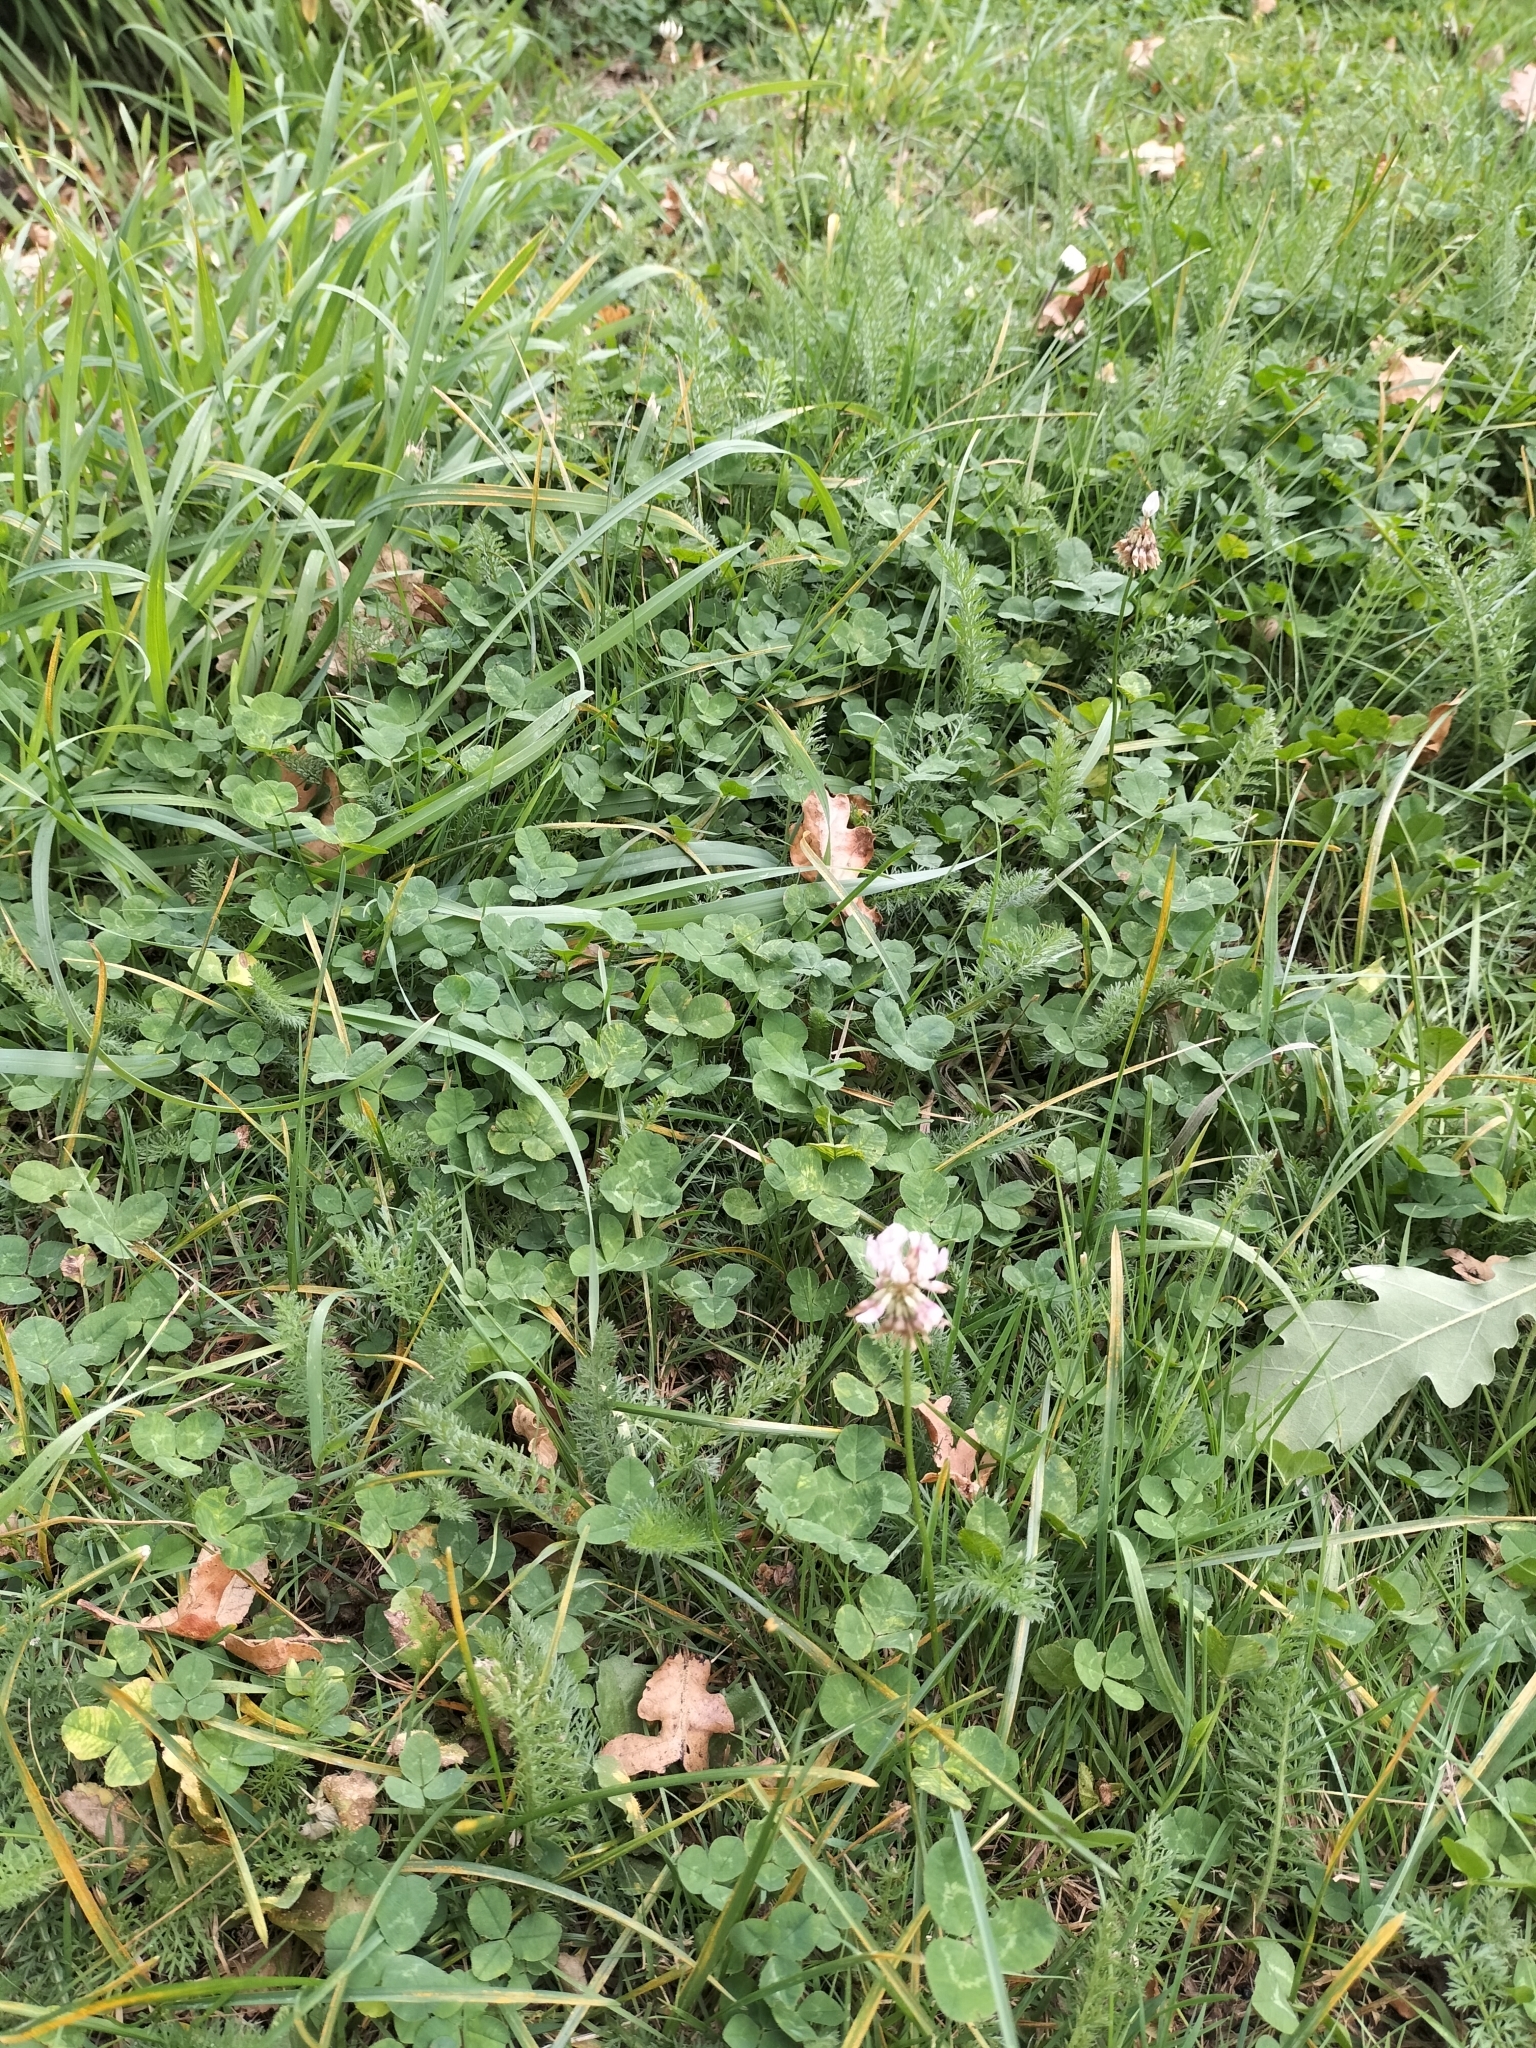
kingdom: Plantae
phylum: Tracheophyta
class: Magnoliopsida
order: Fabales
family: Fabaceae
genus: Trifolium
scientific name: Trifolium repens
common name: White clover
